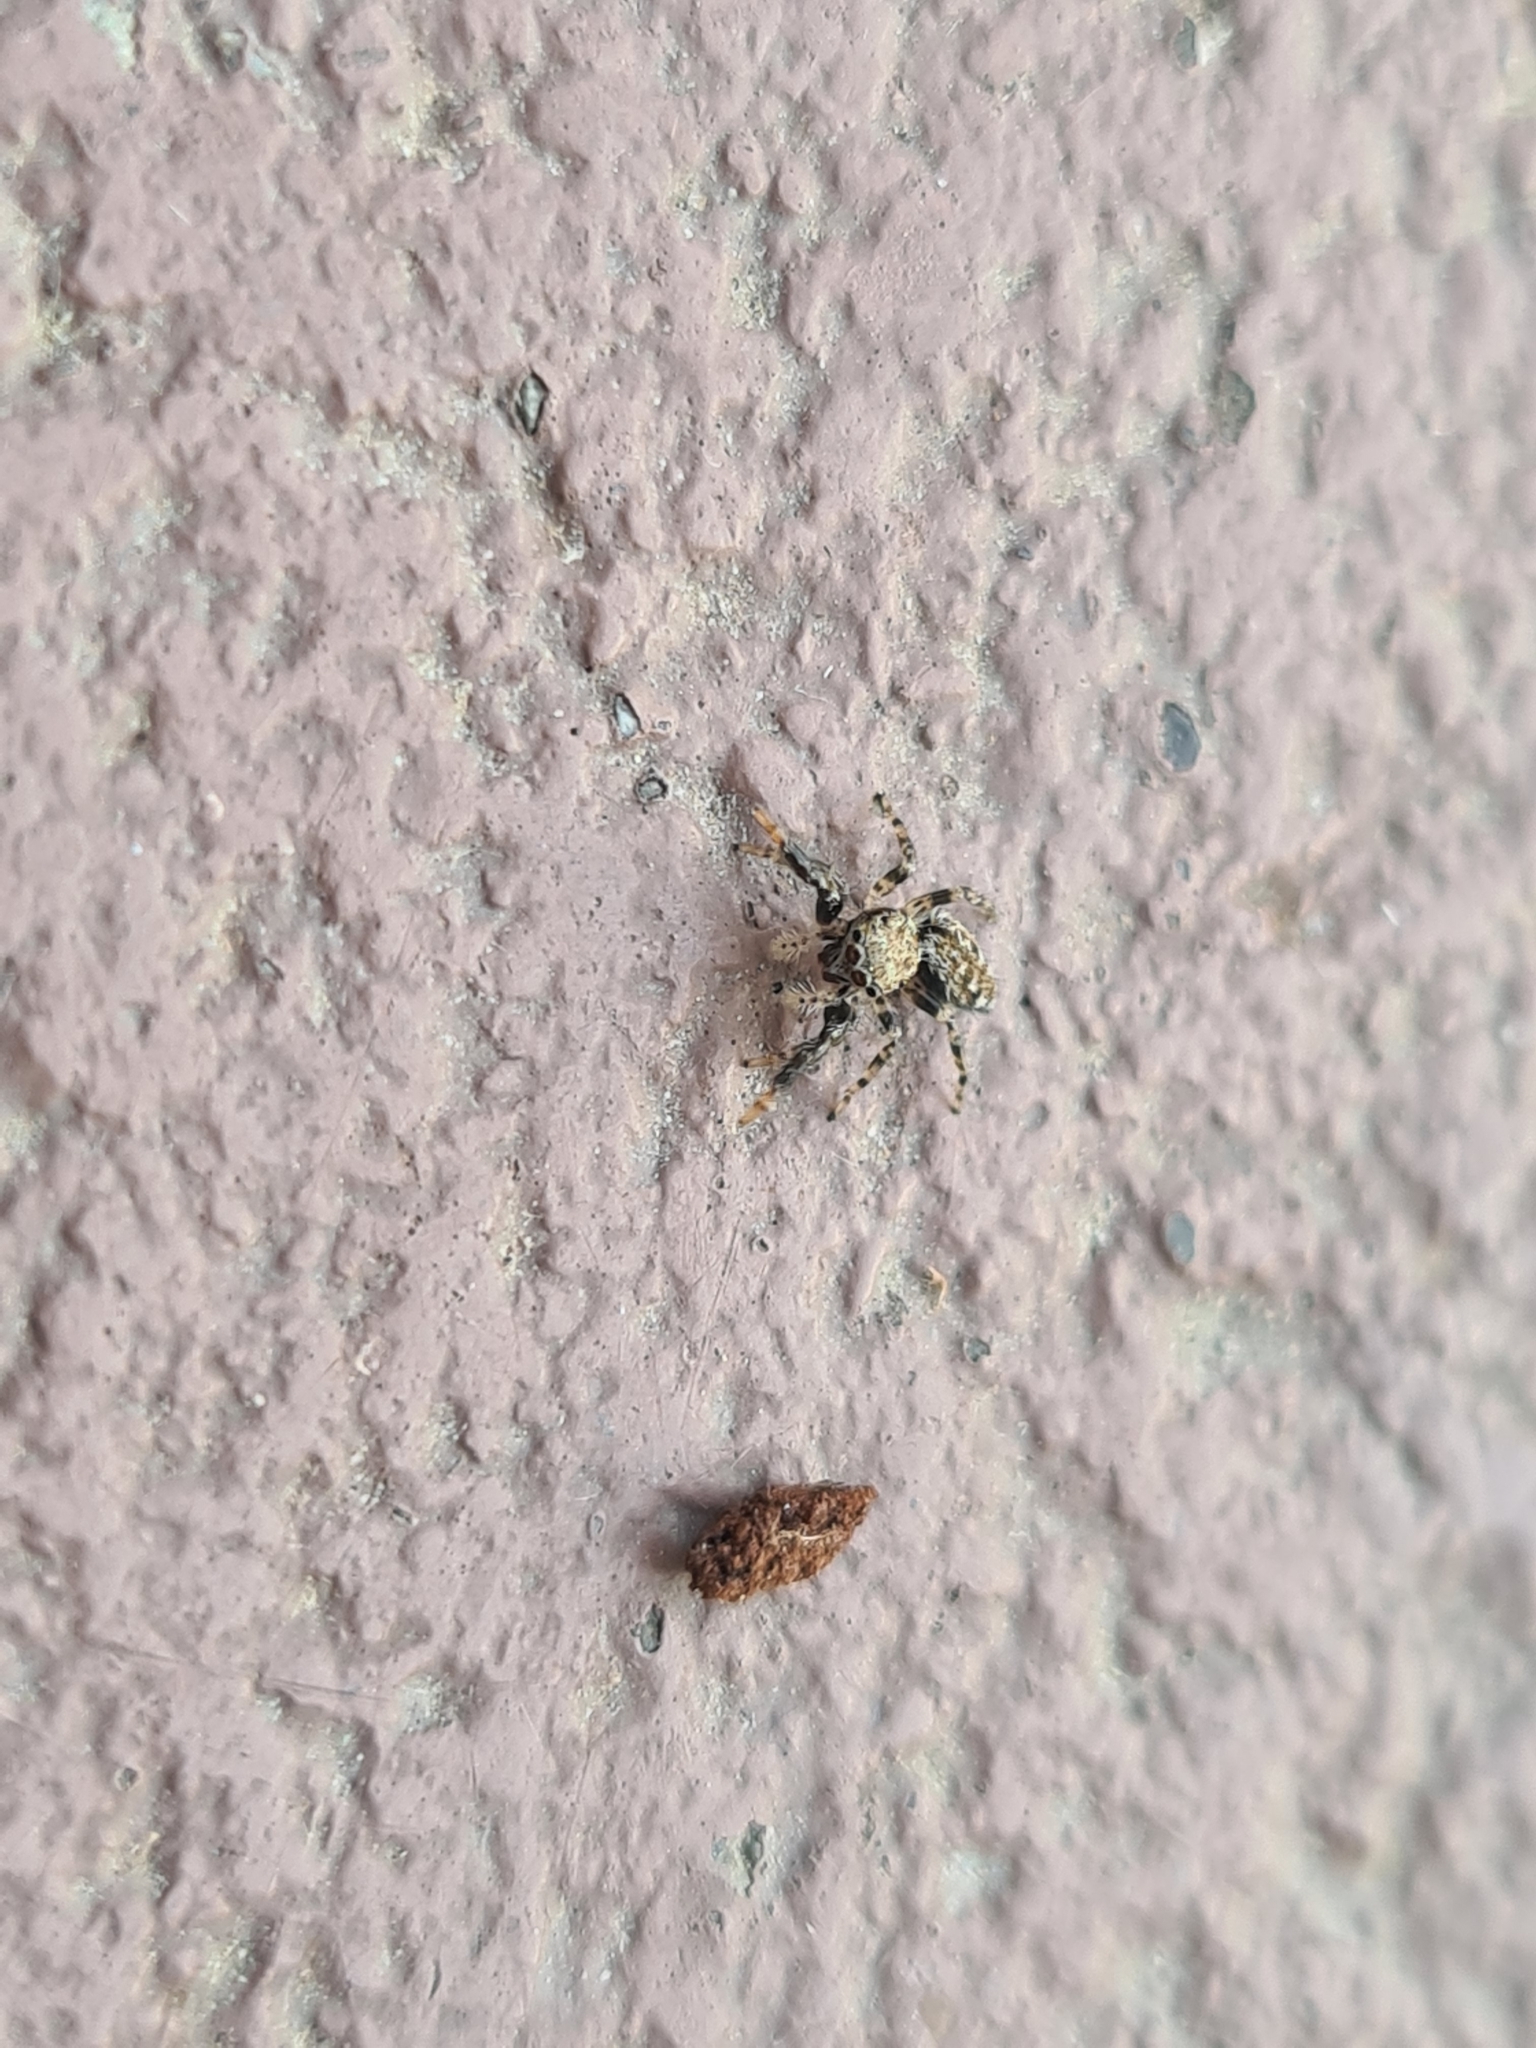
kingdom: Animalia
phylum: Arthropoda
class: Arachnida
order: Araneae
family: Salticidae
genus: Marpissa
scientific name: Marpissa muscosa
